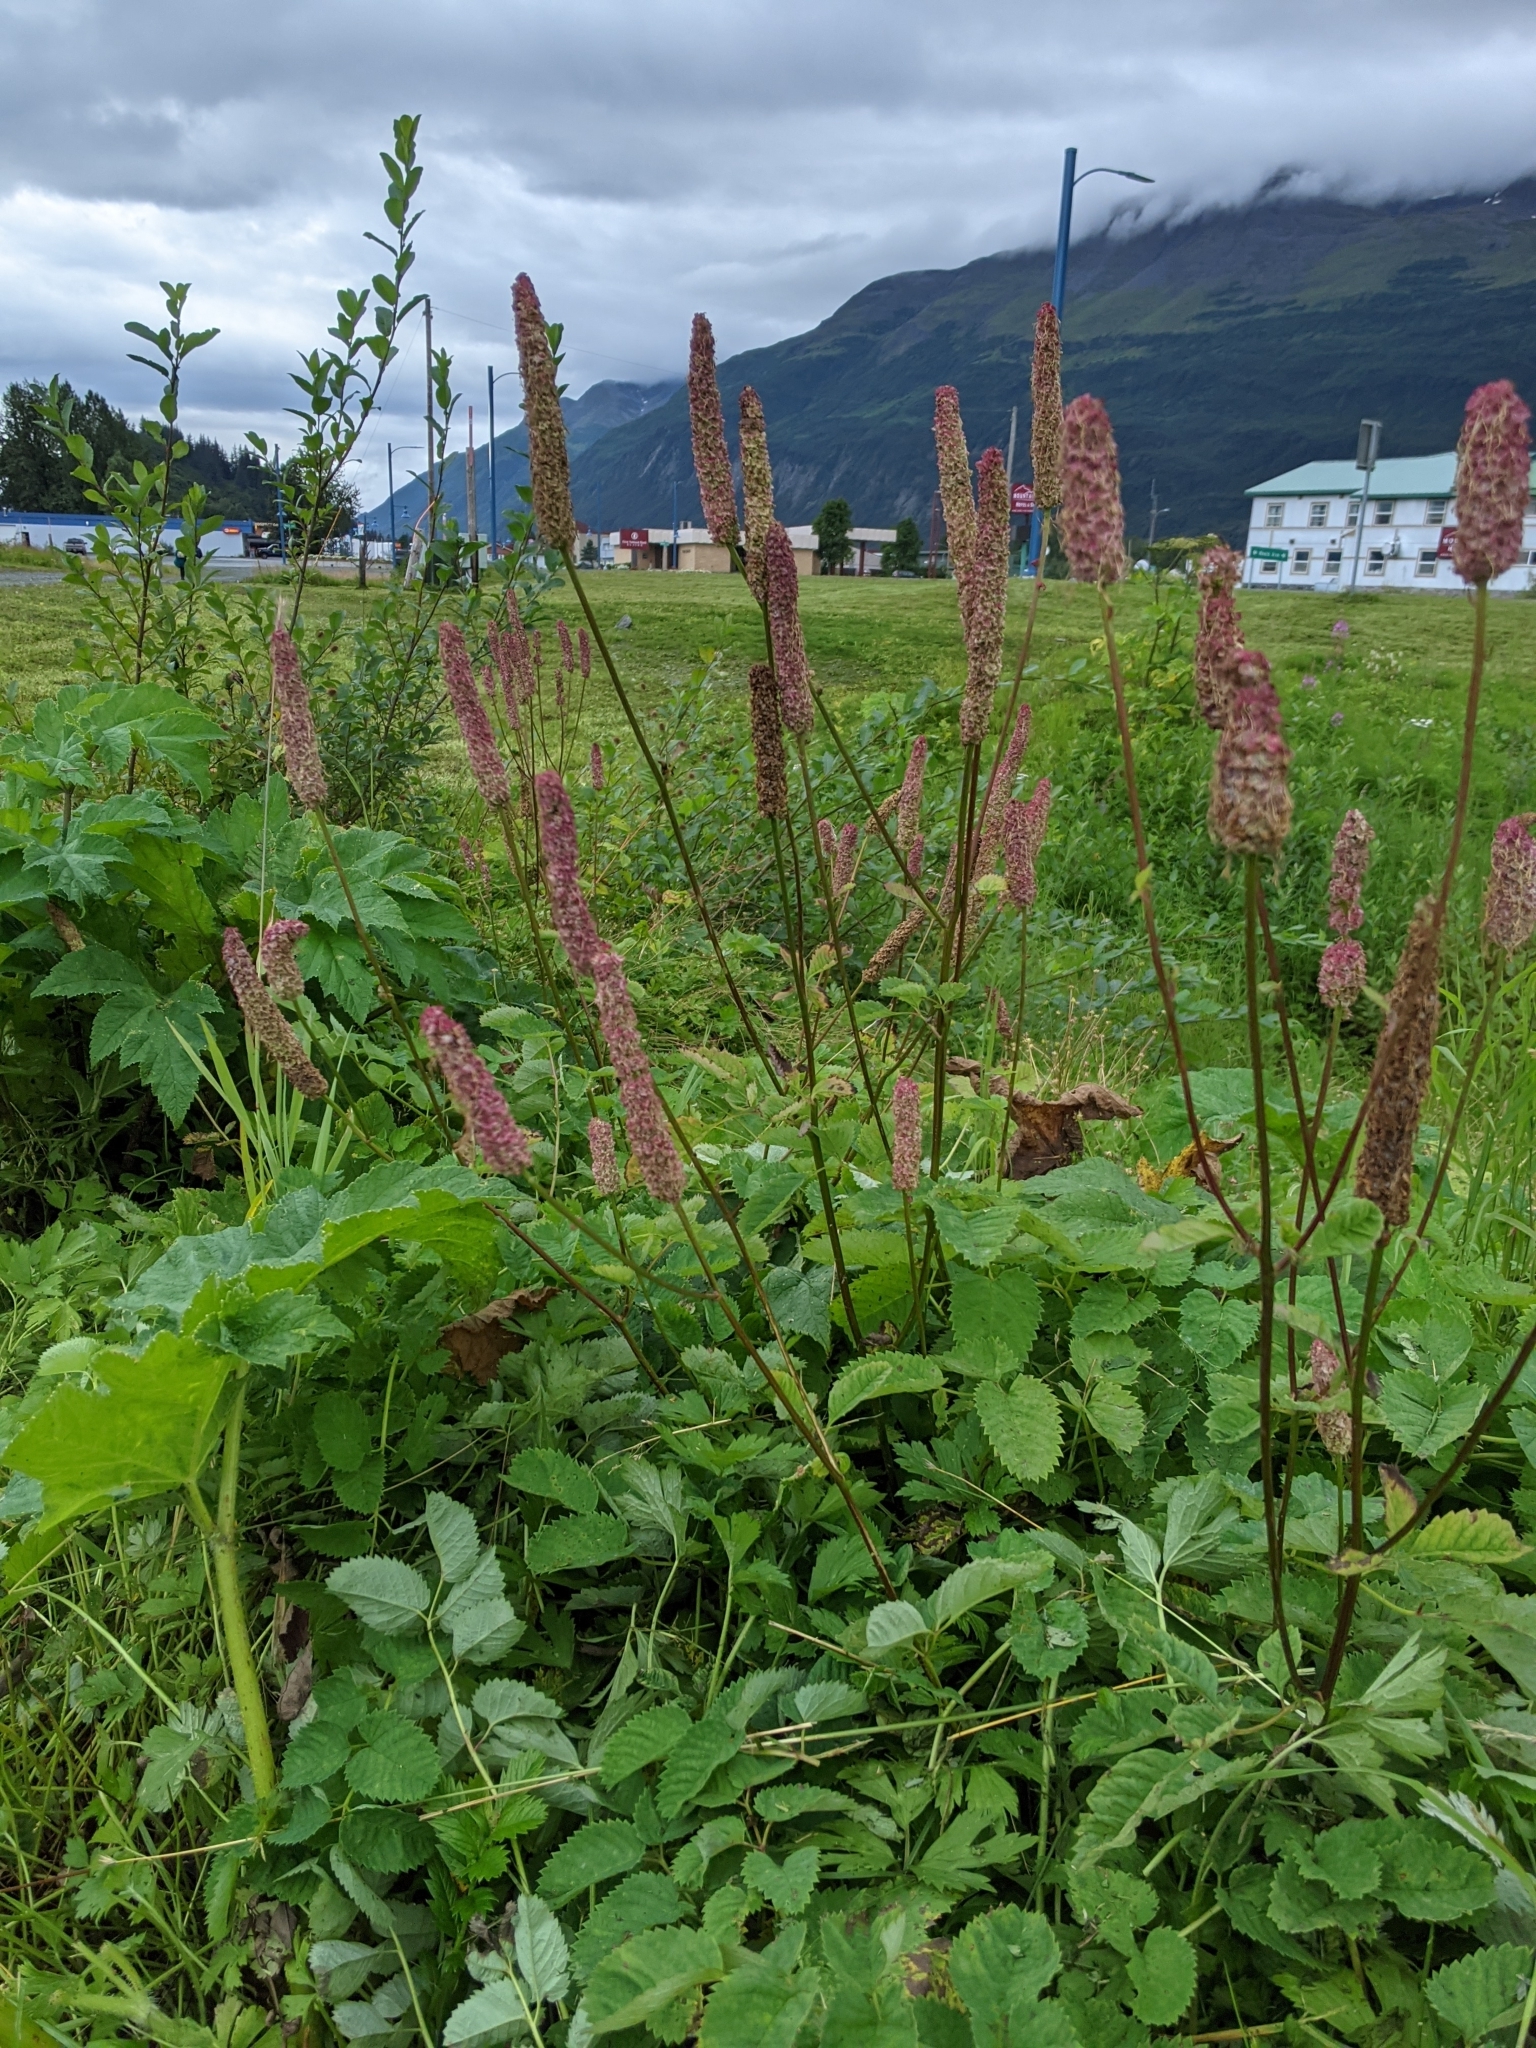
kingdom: Plantae
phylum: Tracheophyta
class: Magnoliopsida
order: Rosales
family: Rosaceae
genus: Sanguisorba
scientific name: Sanguisorba stipulata
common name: Sitka burnet
